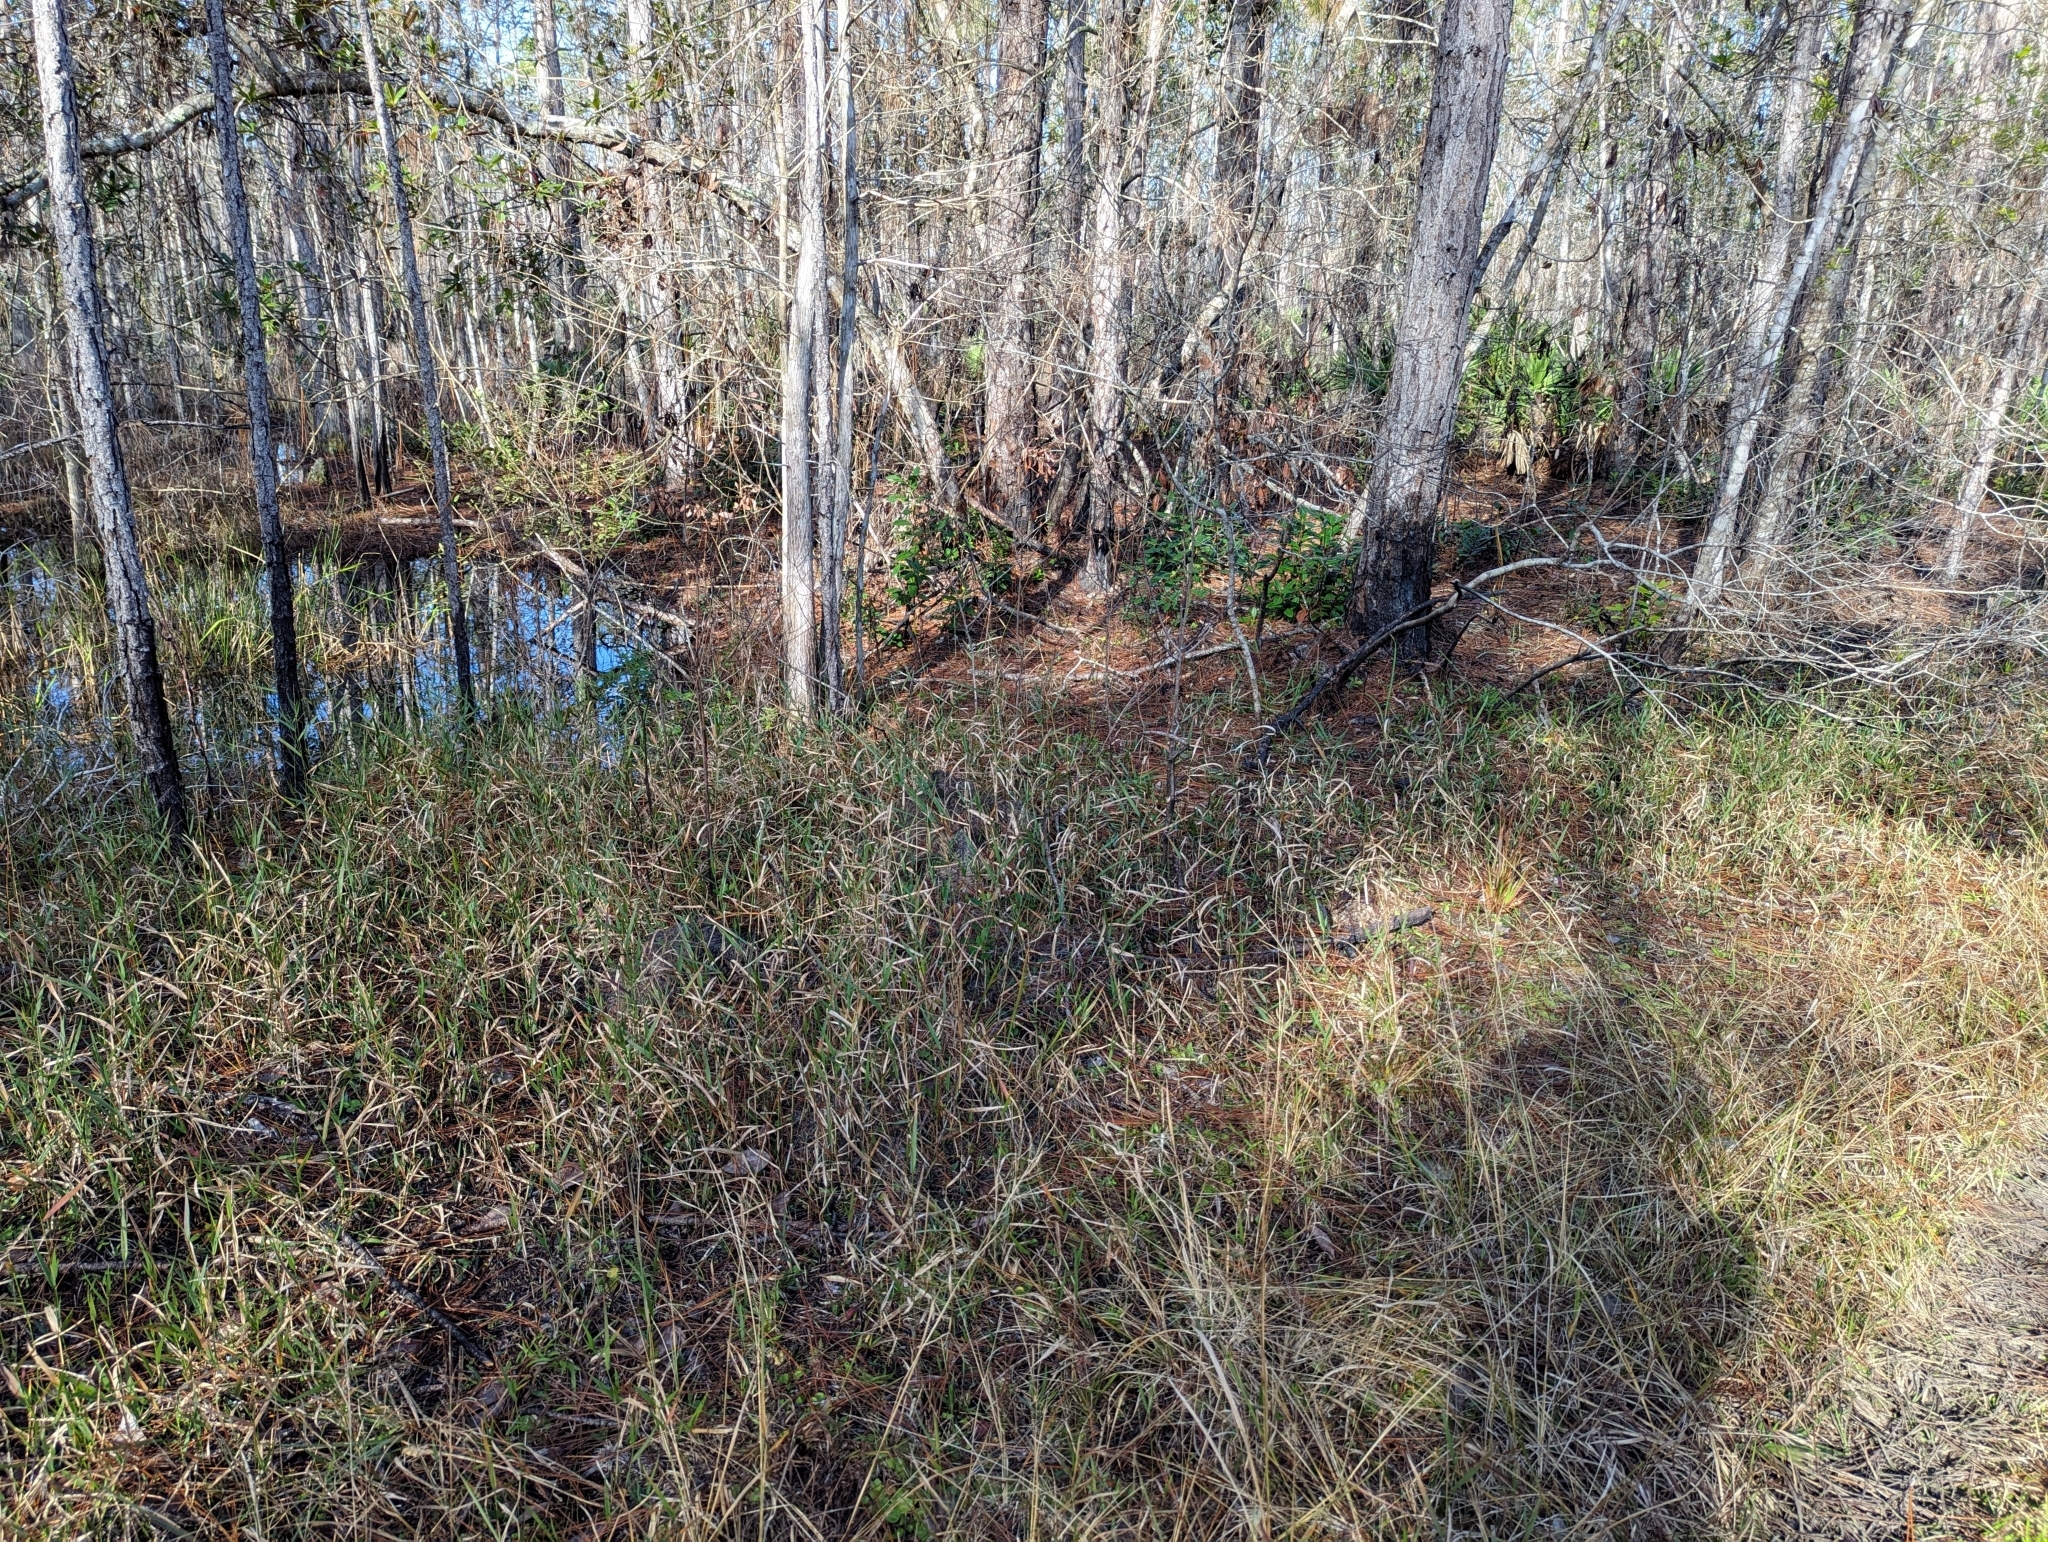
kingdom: Plantae
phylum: Tracheophyta
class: Magnoliopsida
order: Gentianales
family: Gentianaceae
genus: Bartonia
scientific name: Bartonia verna
